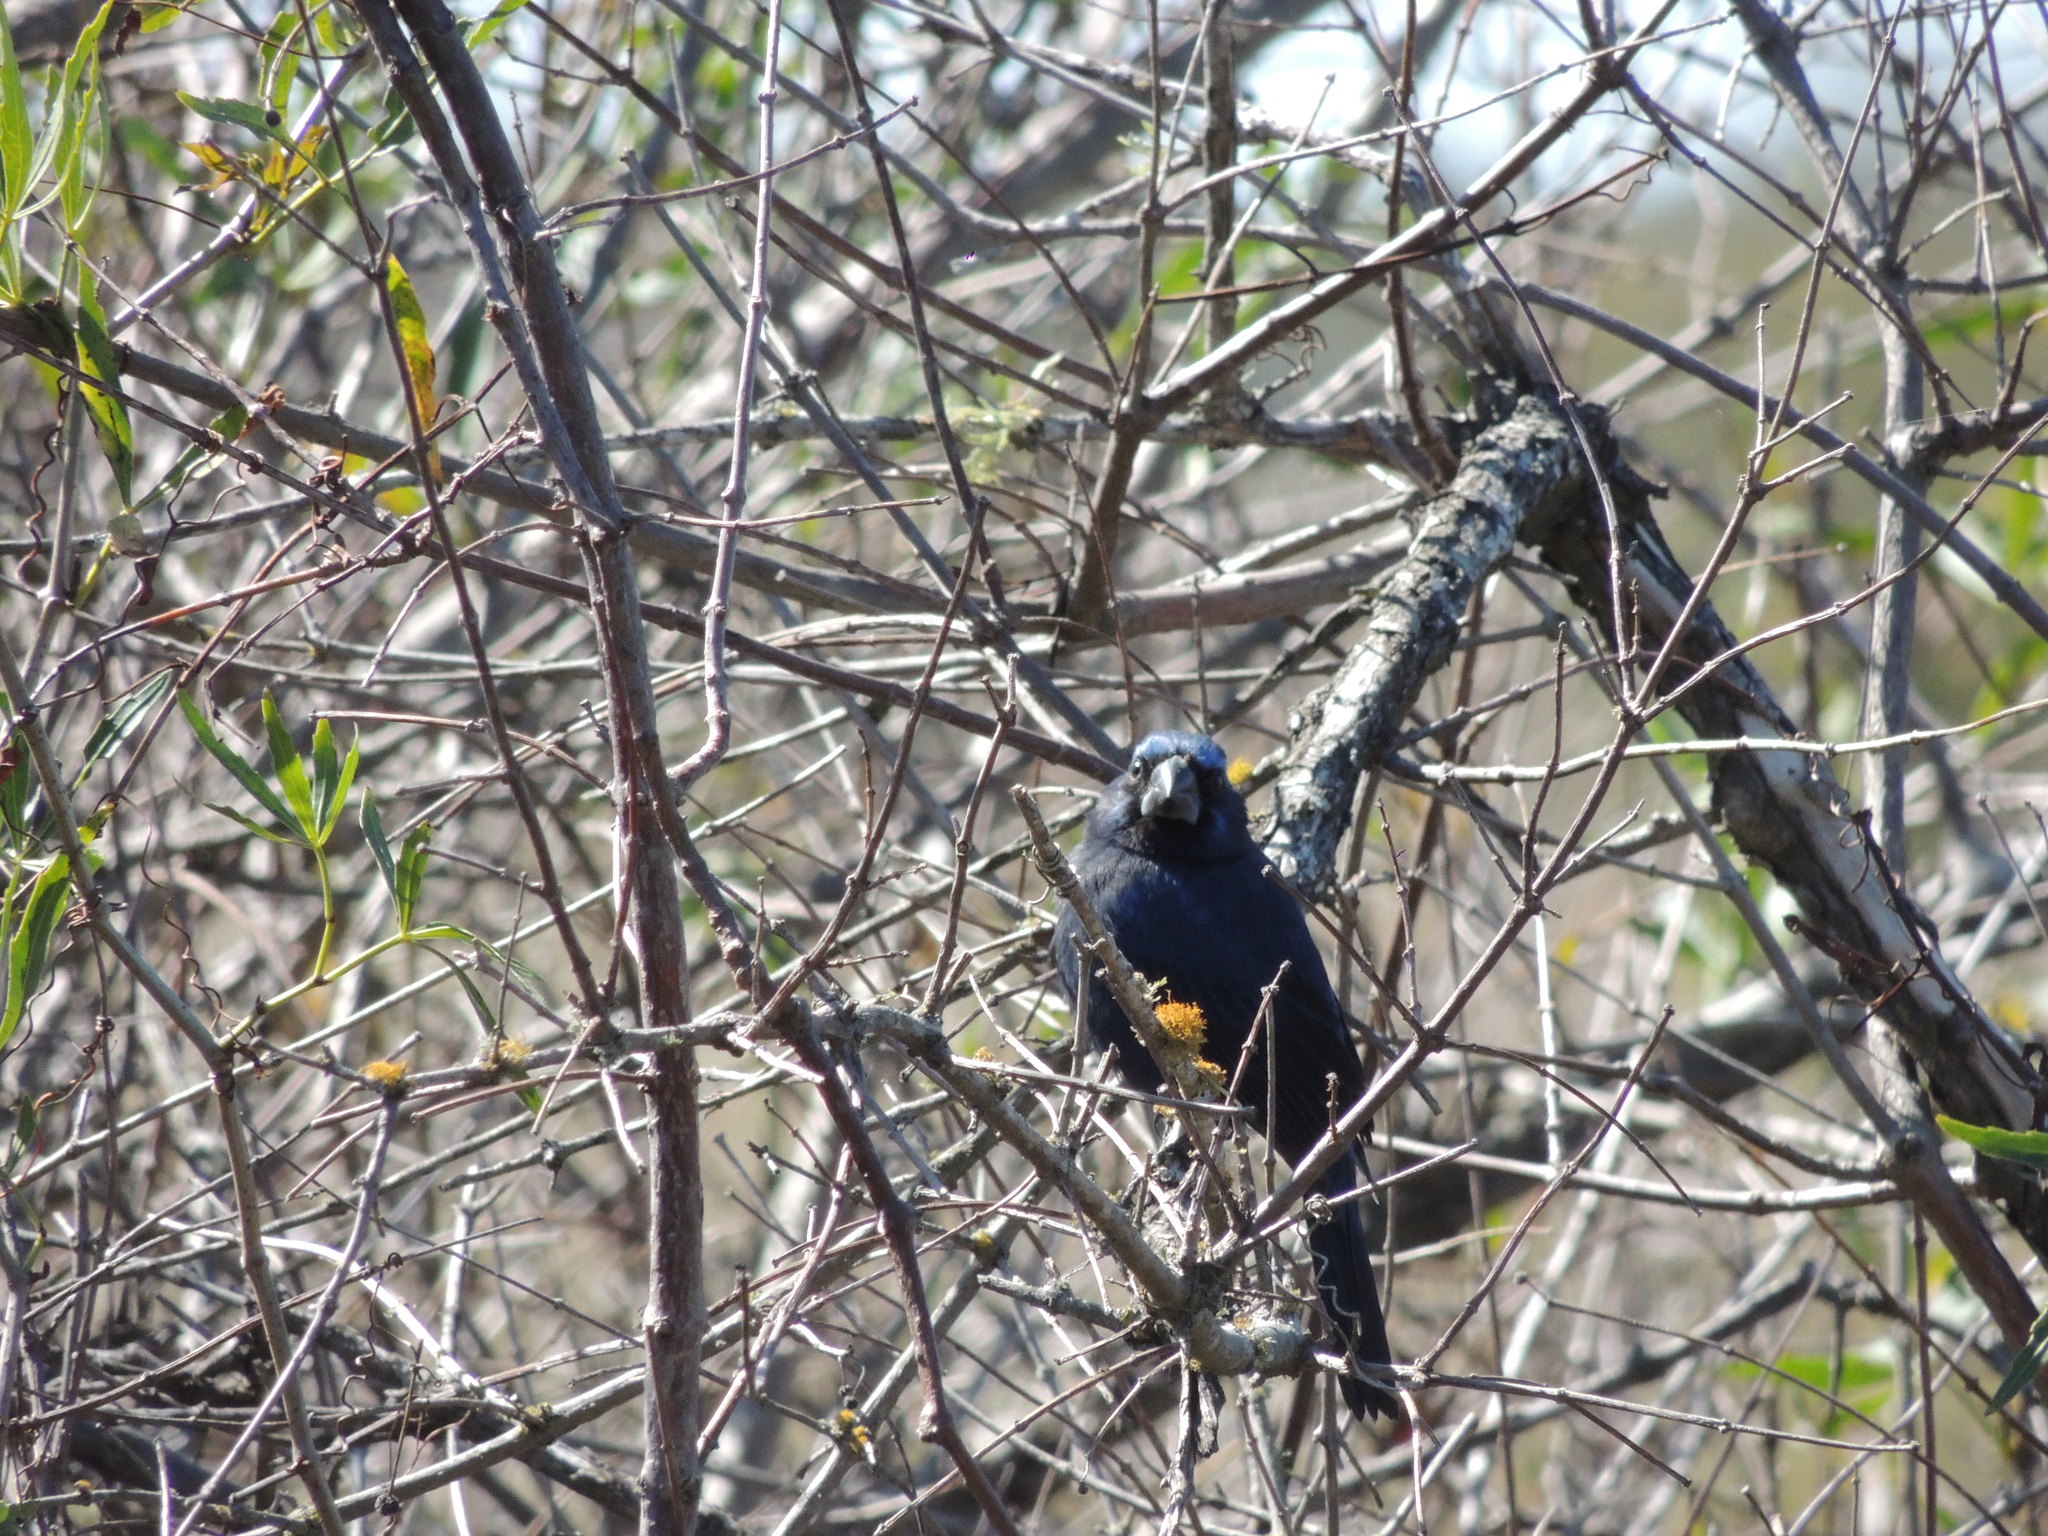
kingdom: Animalia
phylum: Chordata
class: Aves
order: Passeriformes
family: Cardinalidae
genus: Cyanoloxia
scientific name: Cyanoloxia brissonii
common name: Ultramarine grosbeak
